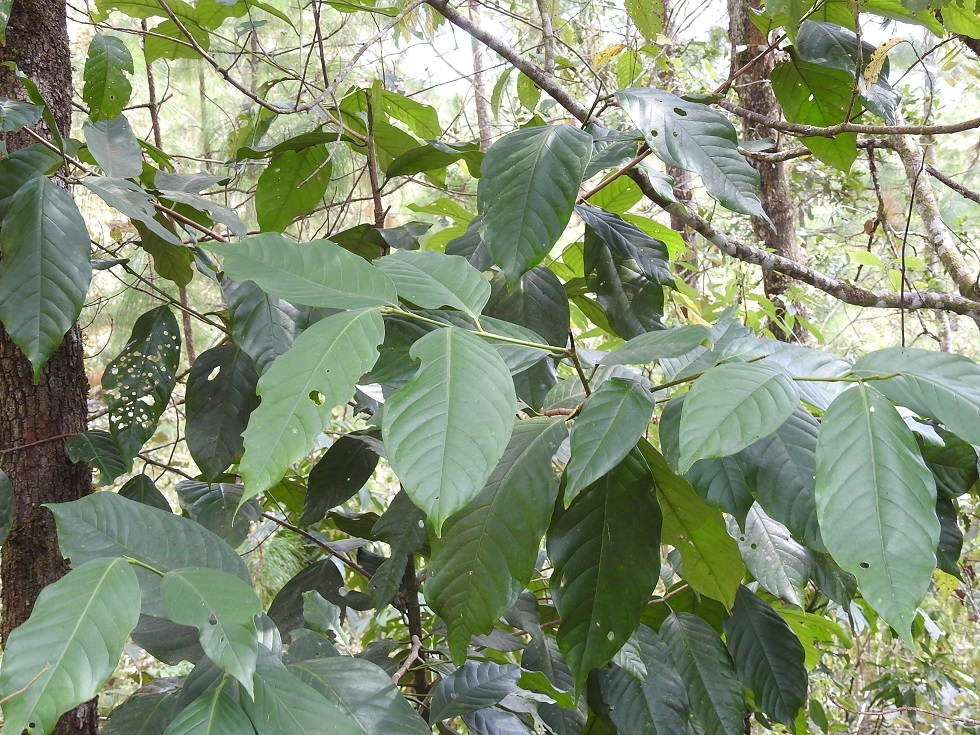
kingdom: Plantae
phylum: Tracheophyta
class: Magnoliopsida
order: Rosales
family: Rosaceae
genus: Prunus
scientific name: Prunus brachybotrya
